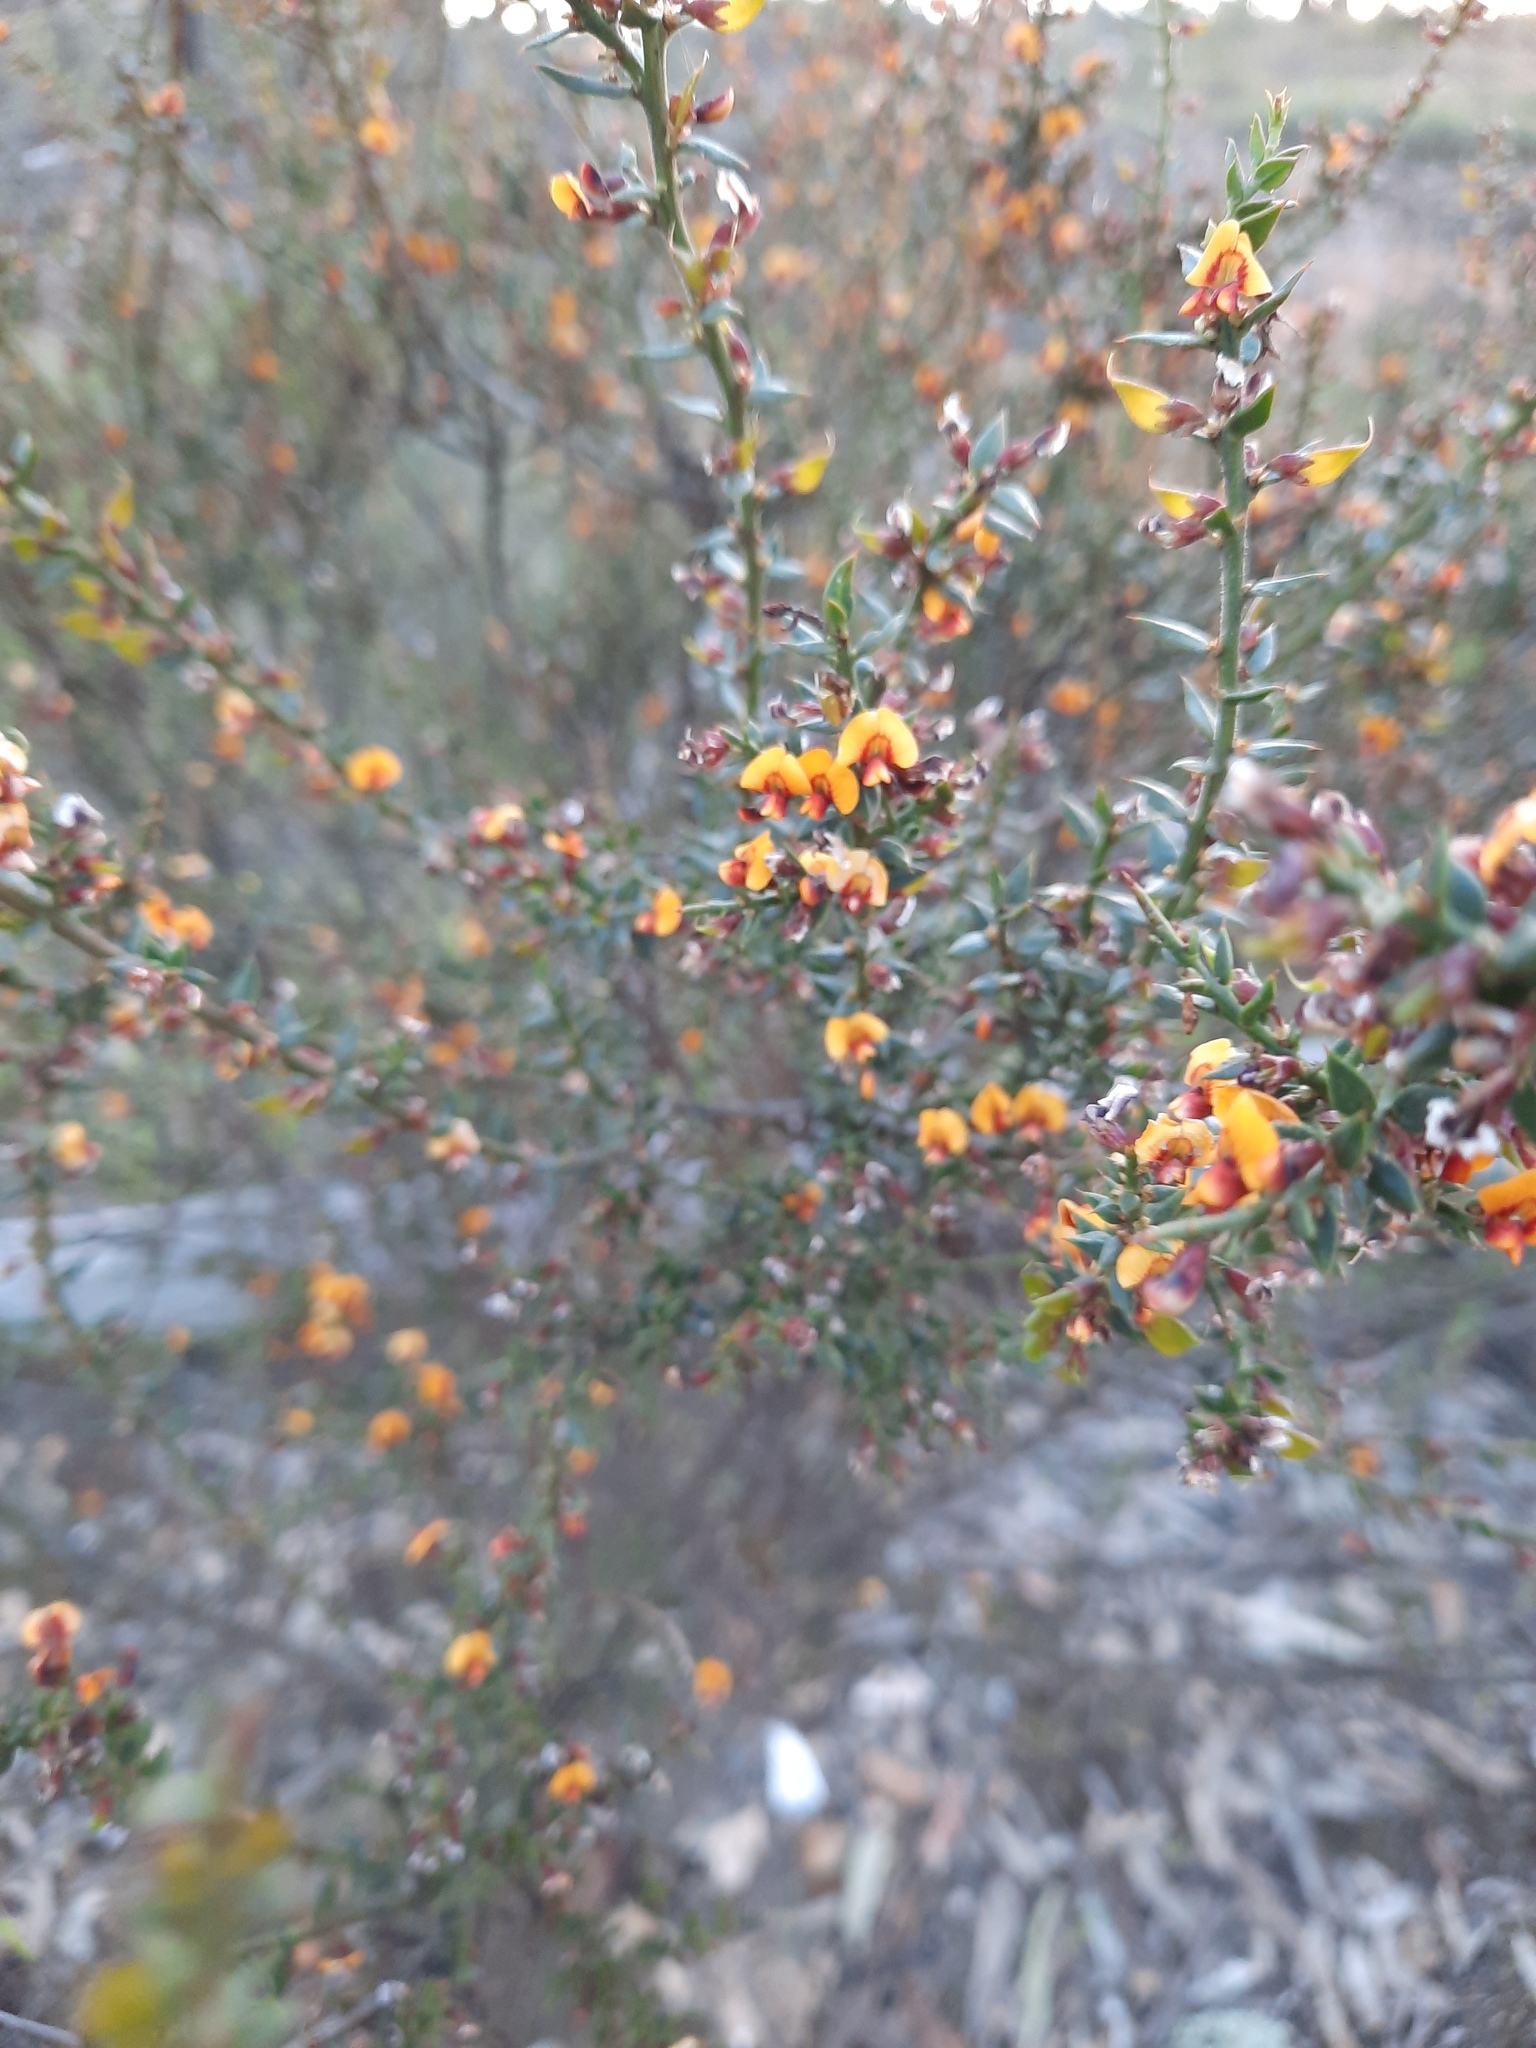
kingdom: Plantae
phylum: Tracheophyta
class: Magnoliopsida
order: Fabales
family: Fabaceae
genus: Daviesia
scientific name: Daviesia ulicifolia
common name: Gorse bitter-pea
